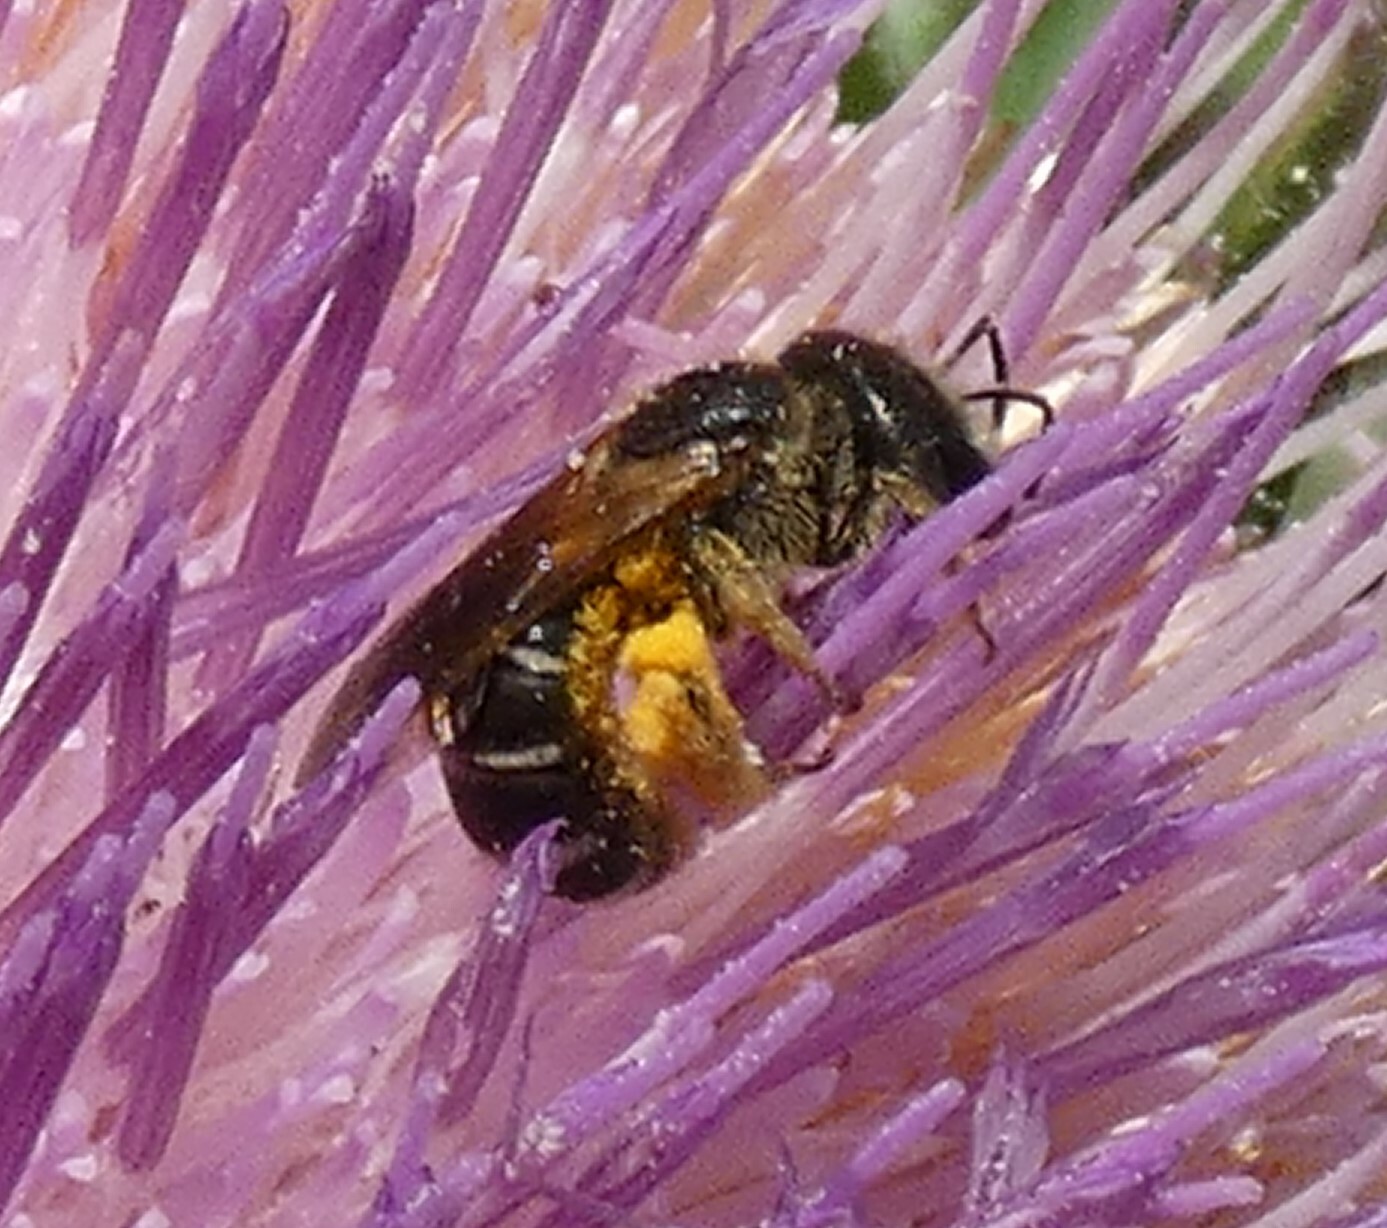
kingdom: Animalia
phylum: Arthropoda
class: Insecta
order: Hymenoptera
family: Halictidae
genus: Halictus
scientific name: Halictus poeyi
